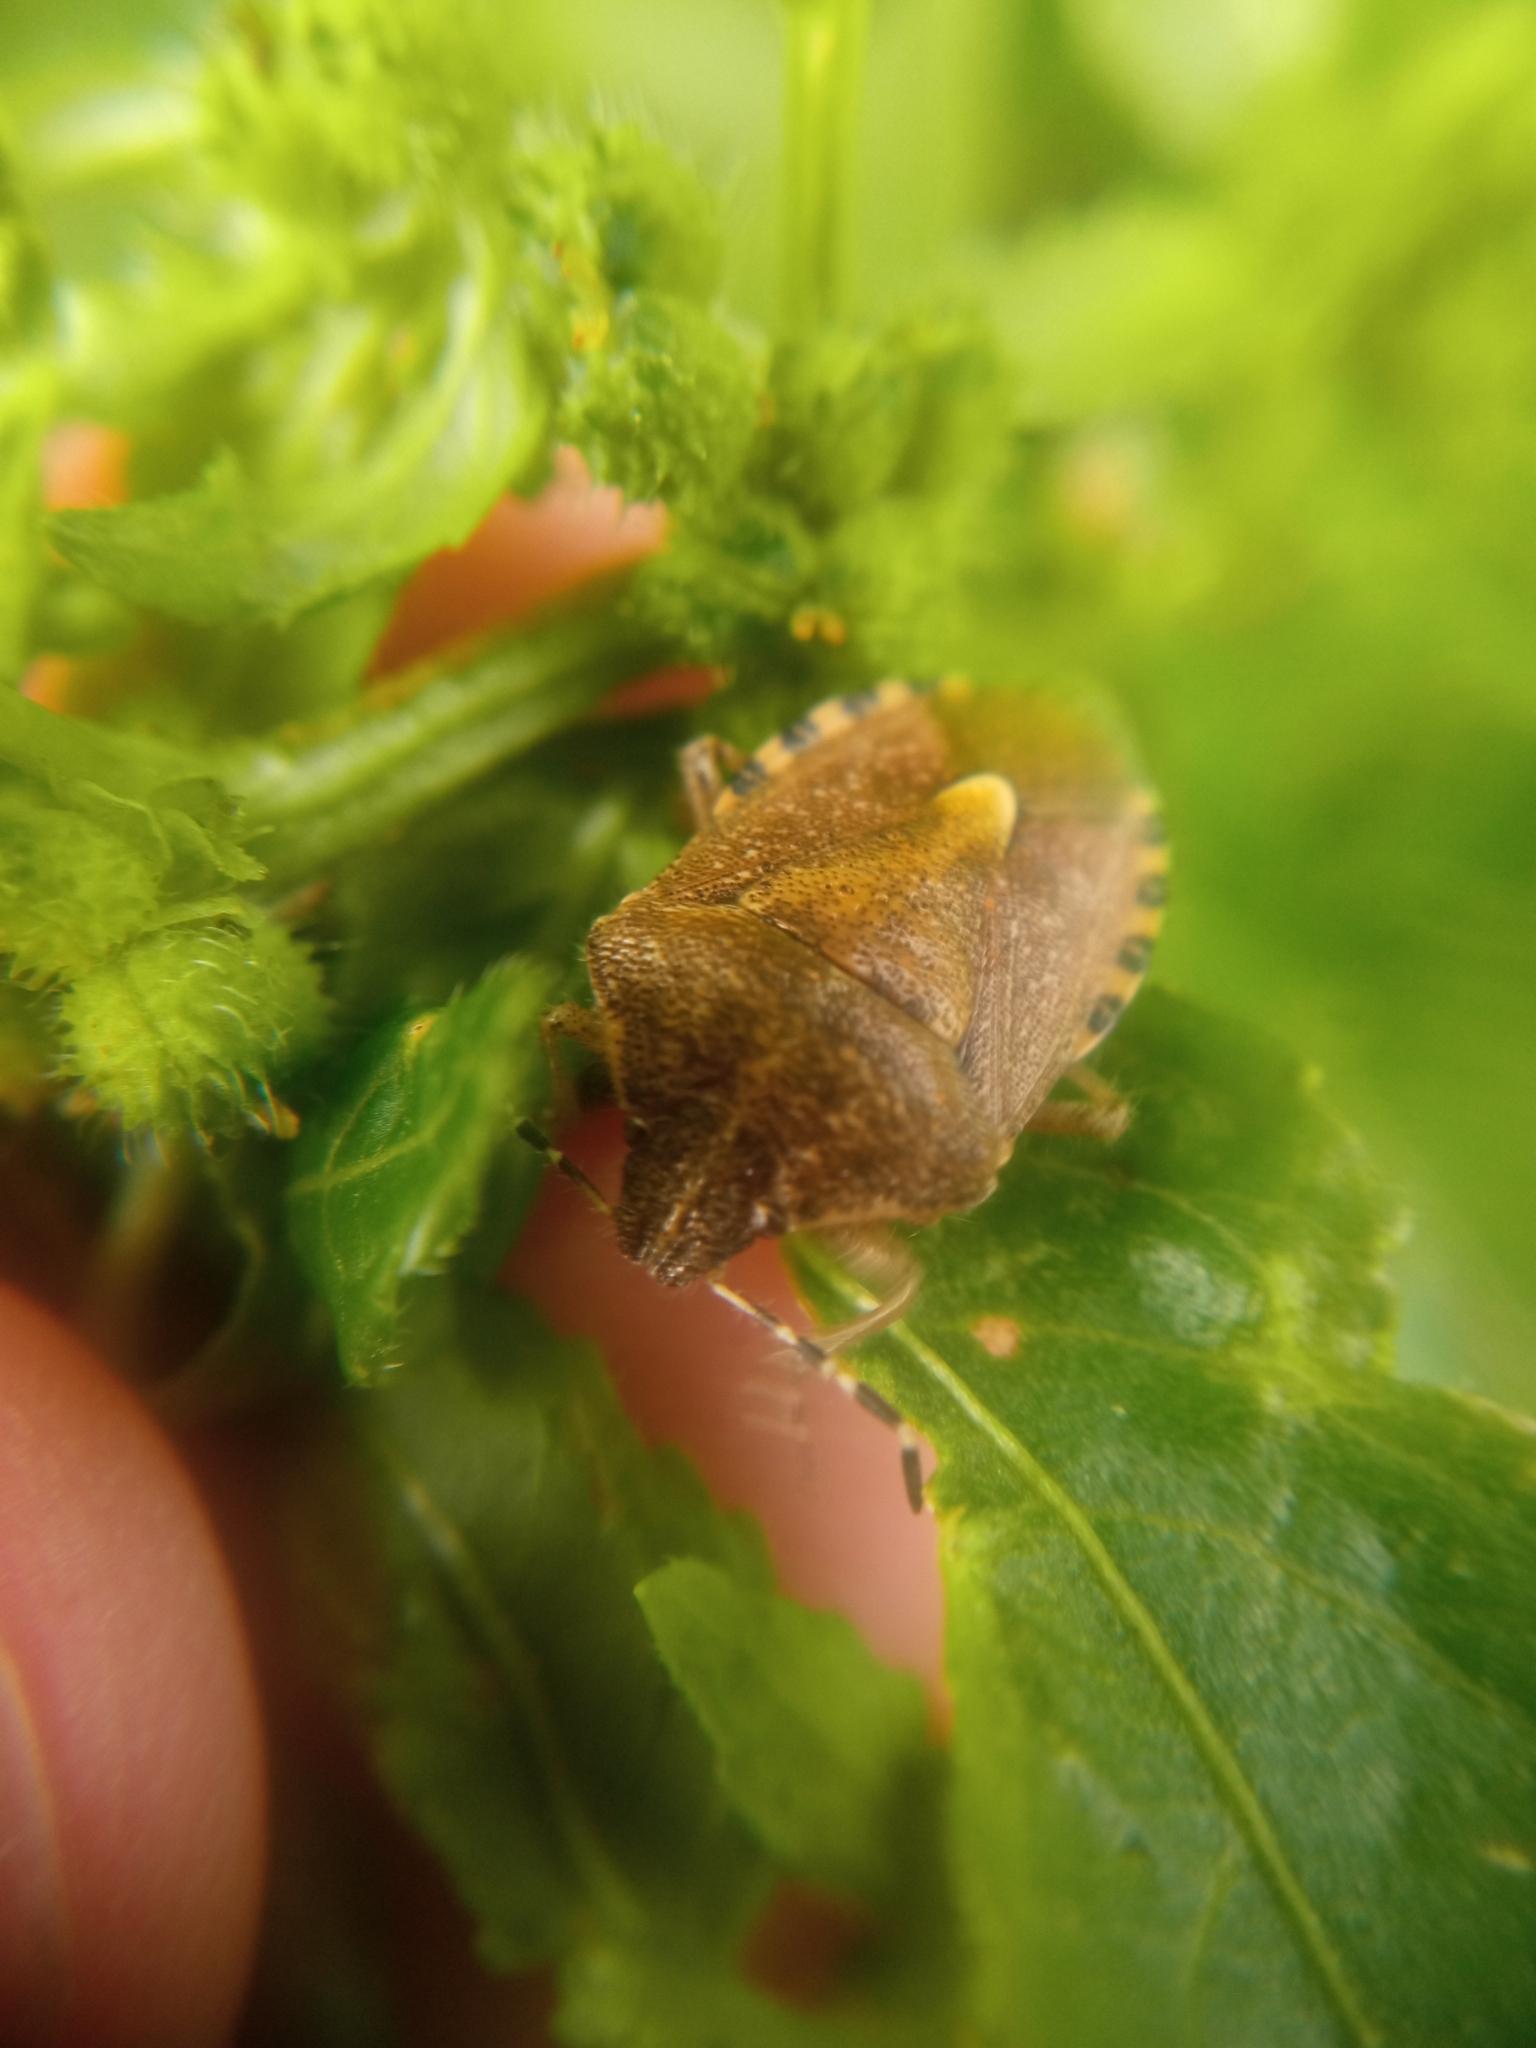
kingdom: Animalia
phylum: Arthropoda
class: Insecta
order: Hemiptera
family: Pentatomidae
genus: Dolycoris
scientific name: Dolycoris baccarum
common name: Sloe bug
